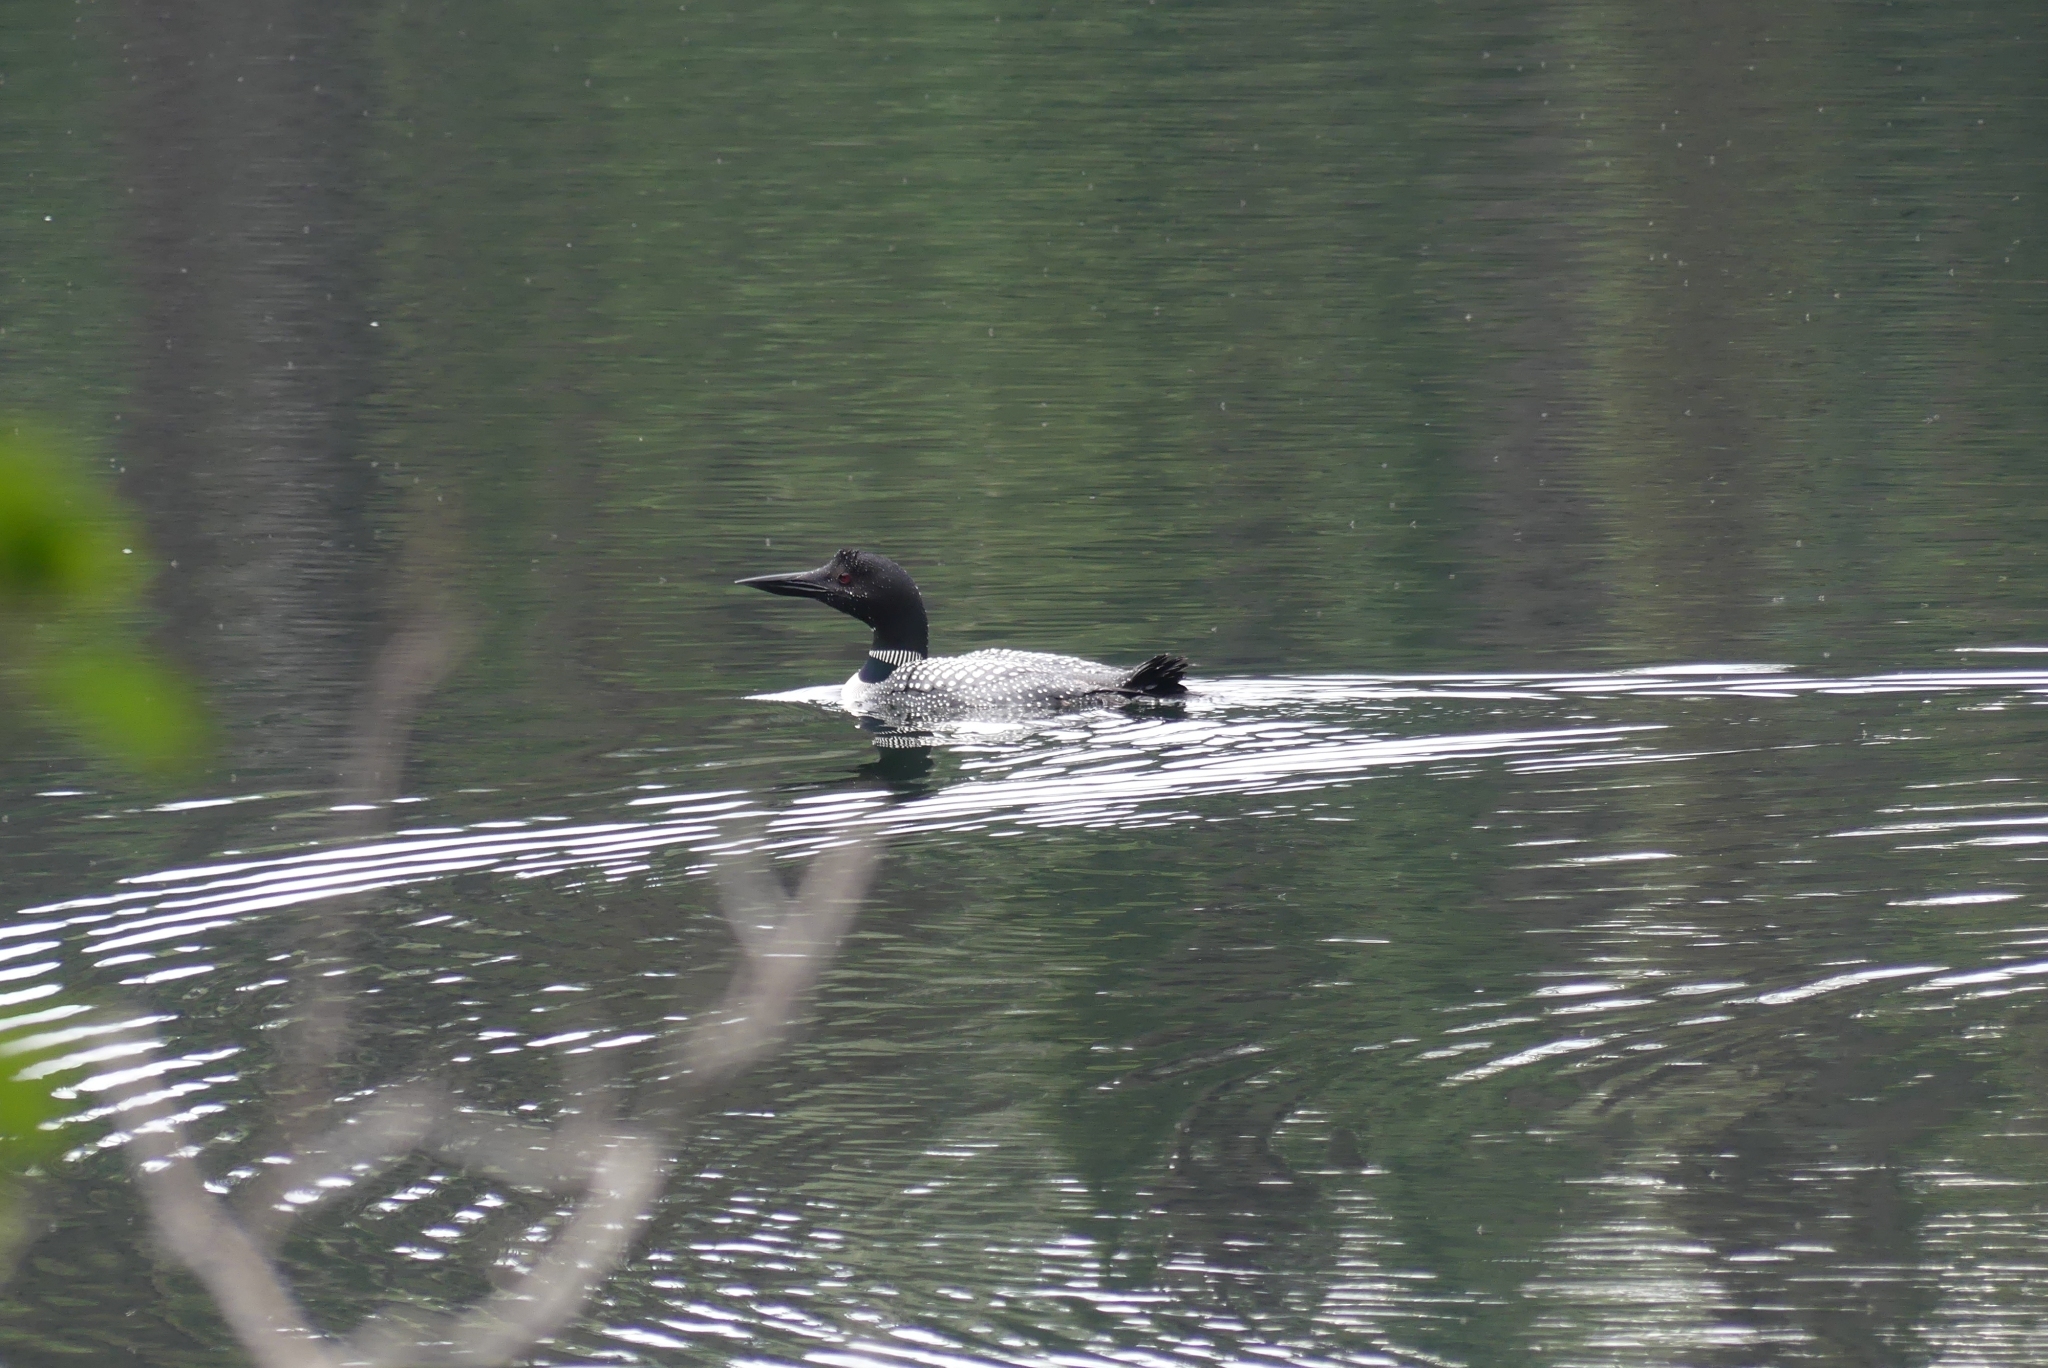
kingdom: Animalia
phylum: Chordata
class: Aves
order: Gaviiformes
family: Gaviidae
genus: Gavia
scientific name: Gavia immer
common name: Common loon
